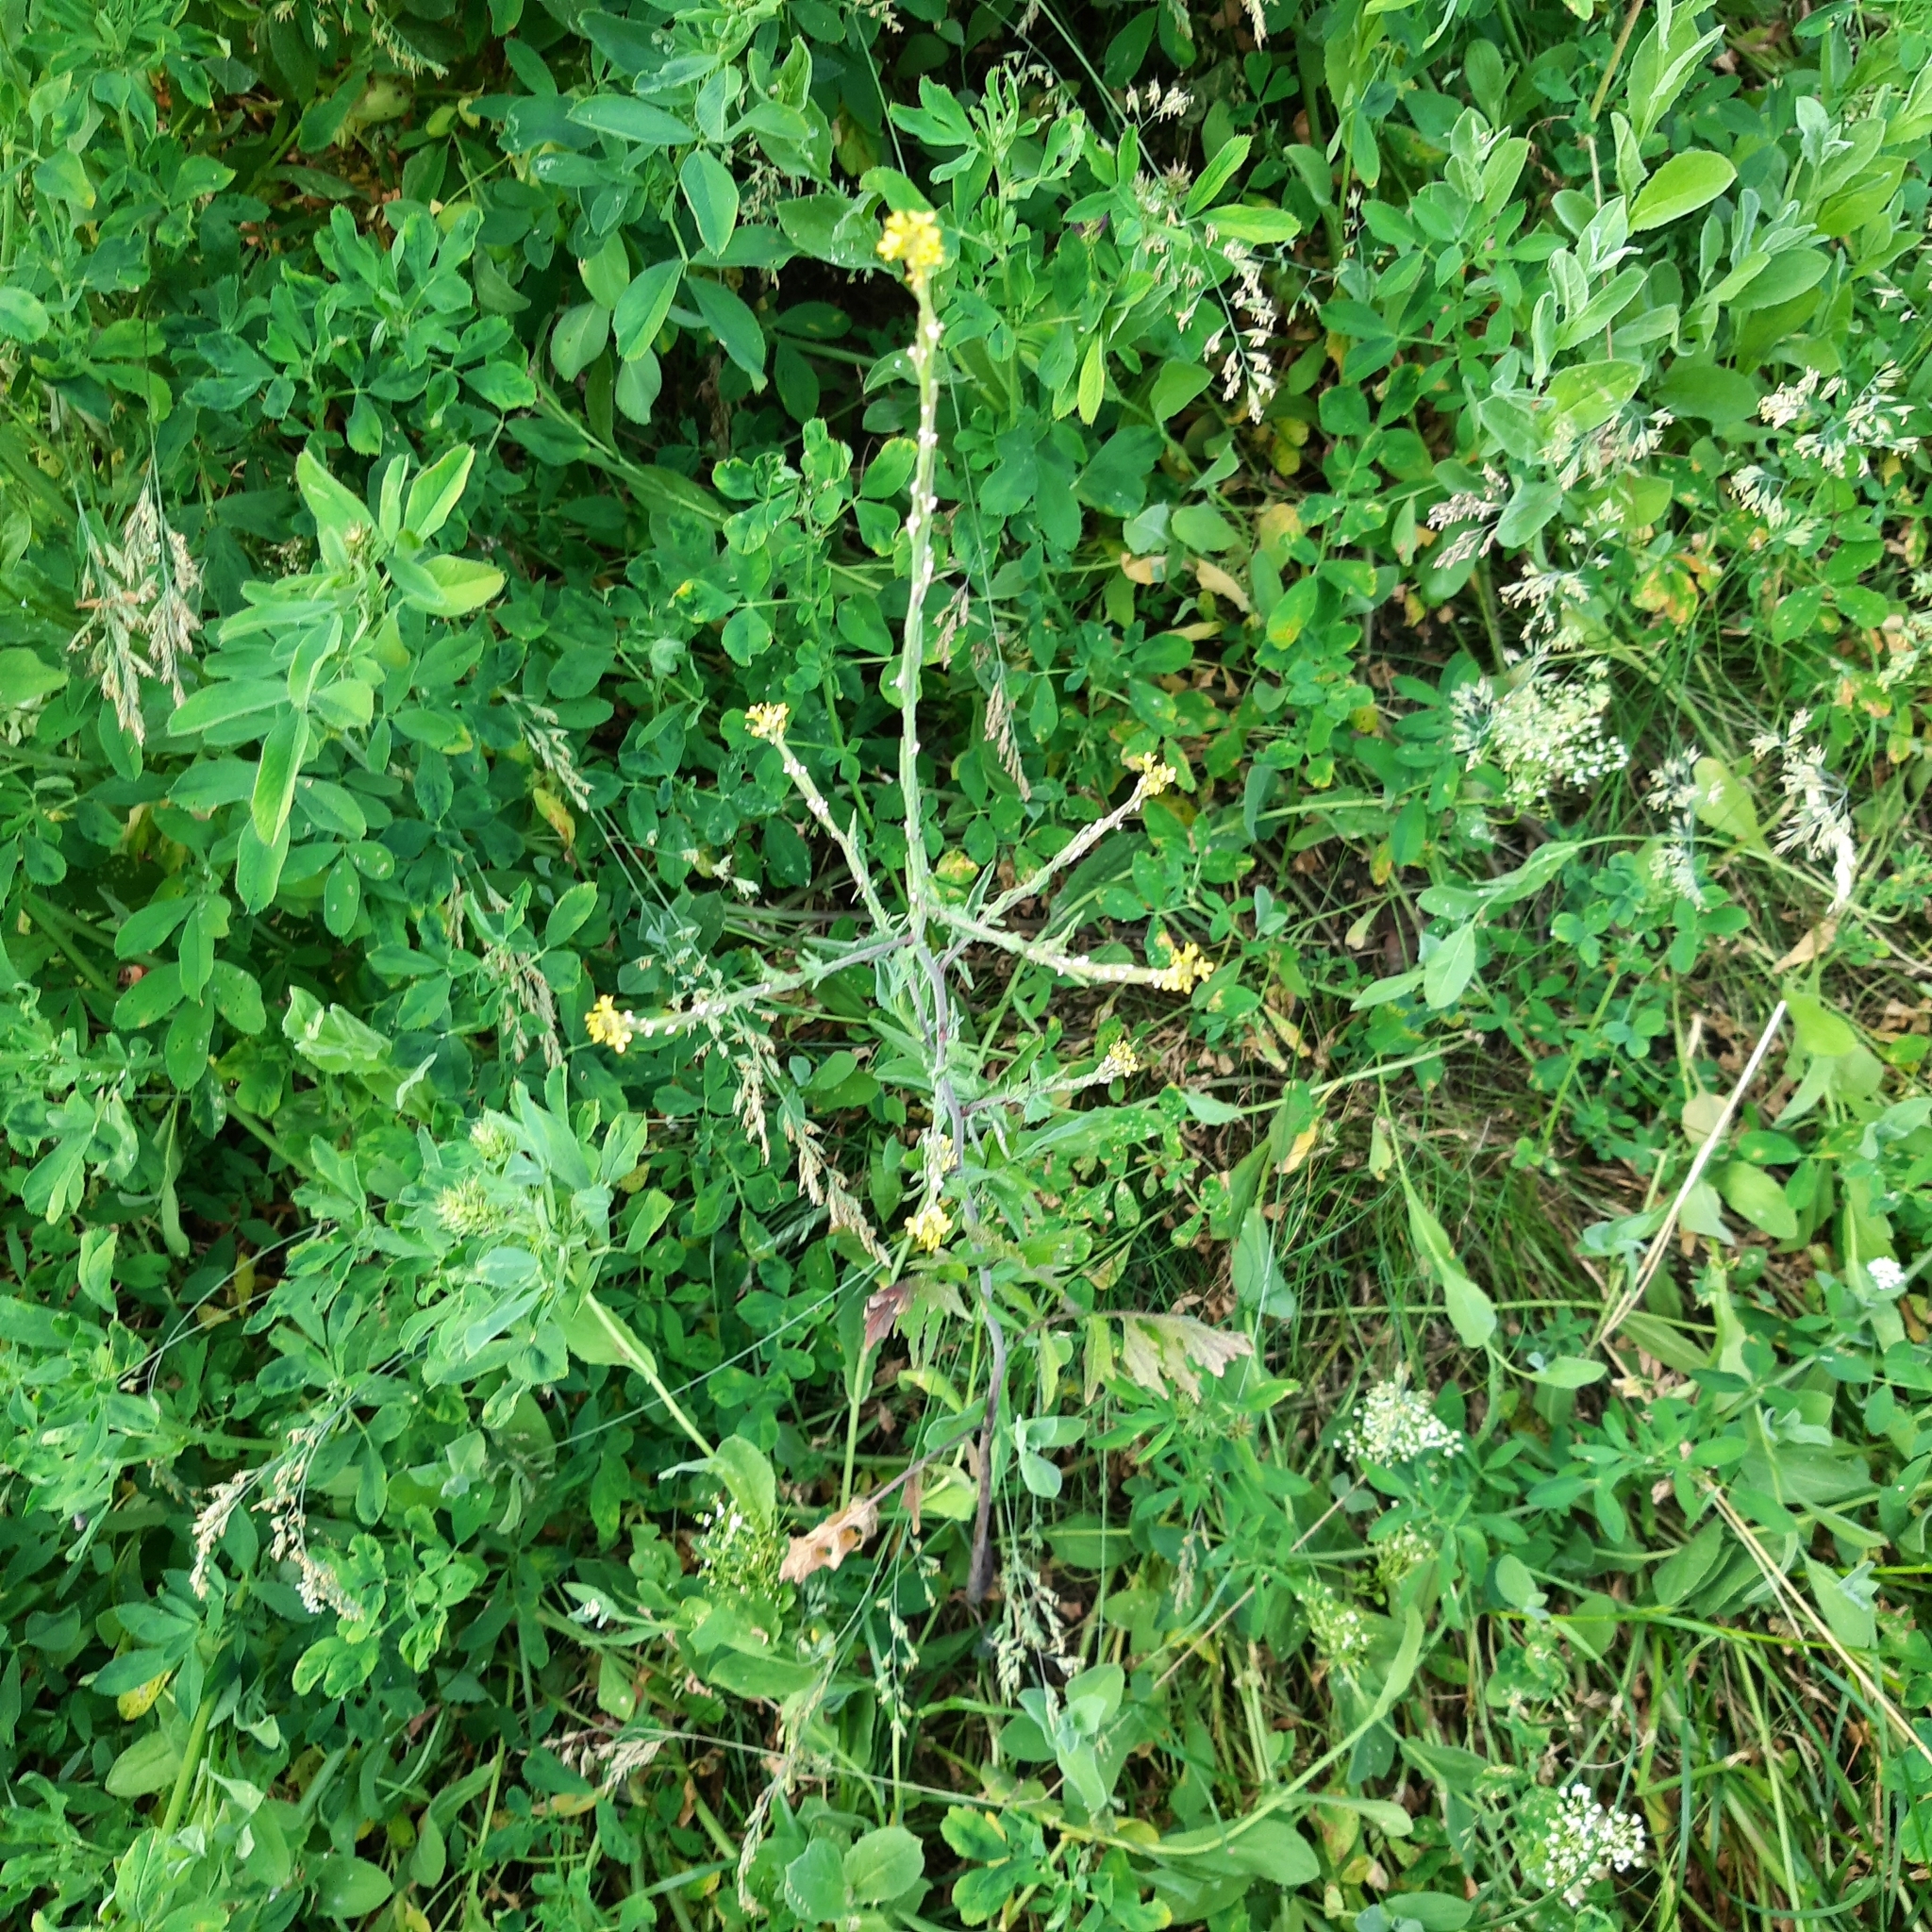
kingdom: Plantae
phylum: Tracheophyta
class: Magnoliopsida
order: Brassicales
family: Brassicaceae
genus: Sisymbrium
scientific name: Sisymbrium officinale
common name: Hedge mustard
